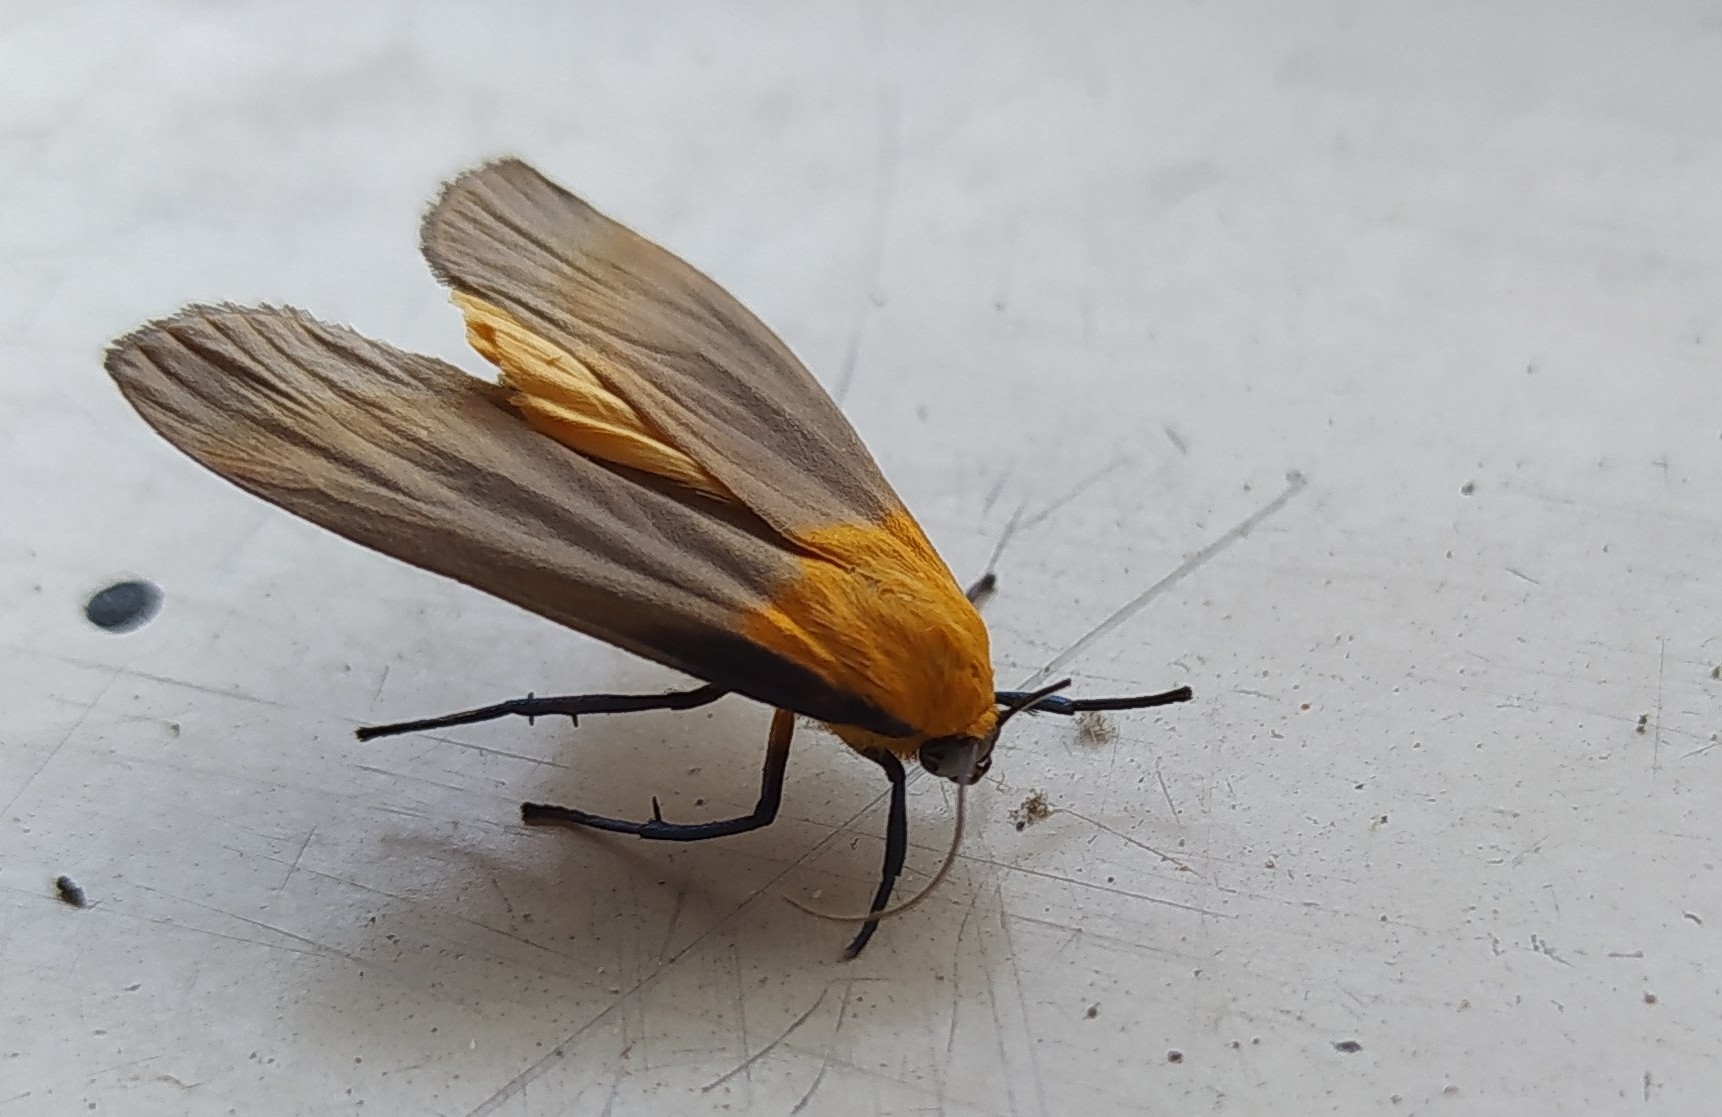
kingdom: Animalia
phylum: Arthropoda
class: Insecta
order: Lepidoptera
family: Erebidae
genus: Lithosia
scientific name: Lithosia quadra
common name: Four-spotted footman
